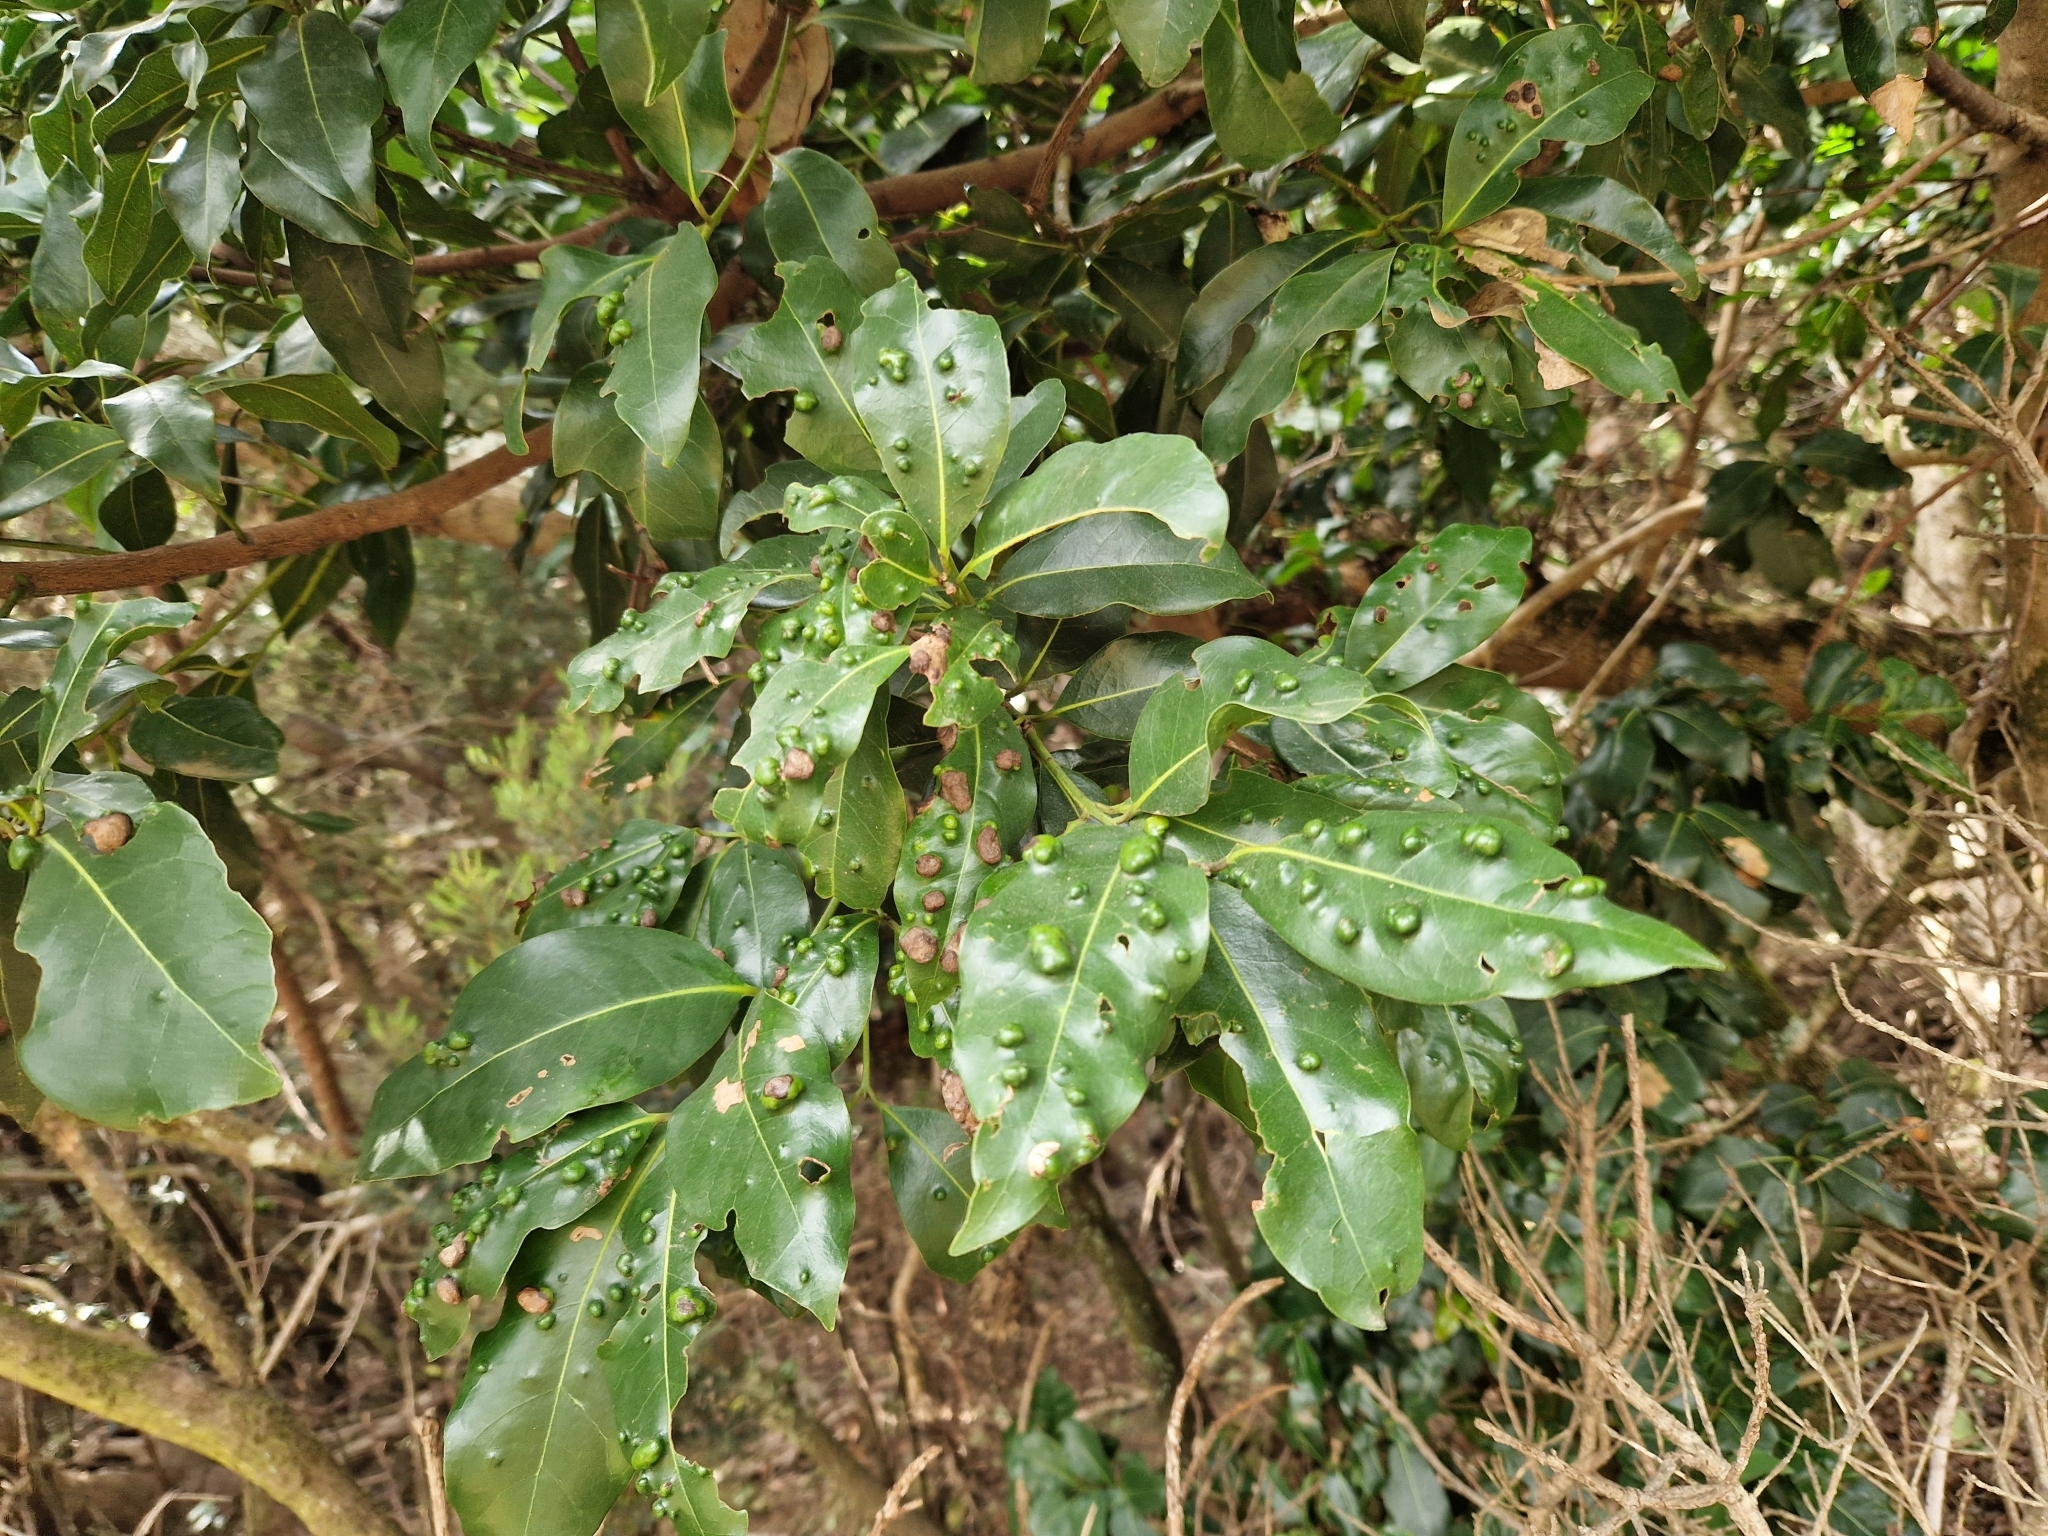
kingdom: Plantae
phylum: Tracheophyta
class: Magnoliopsida
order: Laurales
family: Lauraceae
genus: Apollonias
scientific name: Apollonias barbujana
